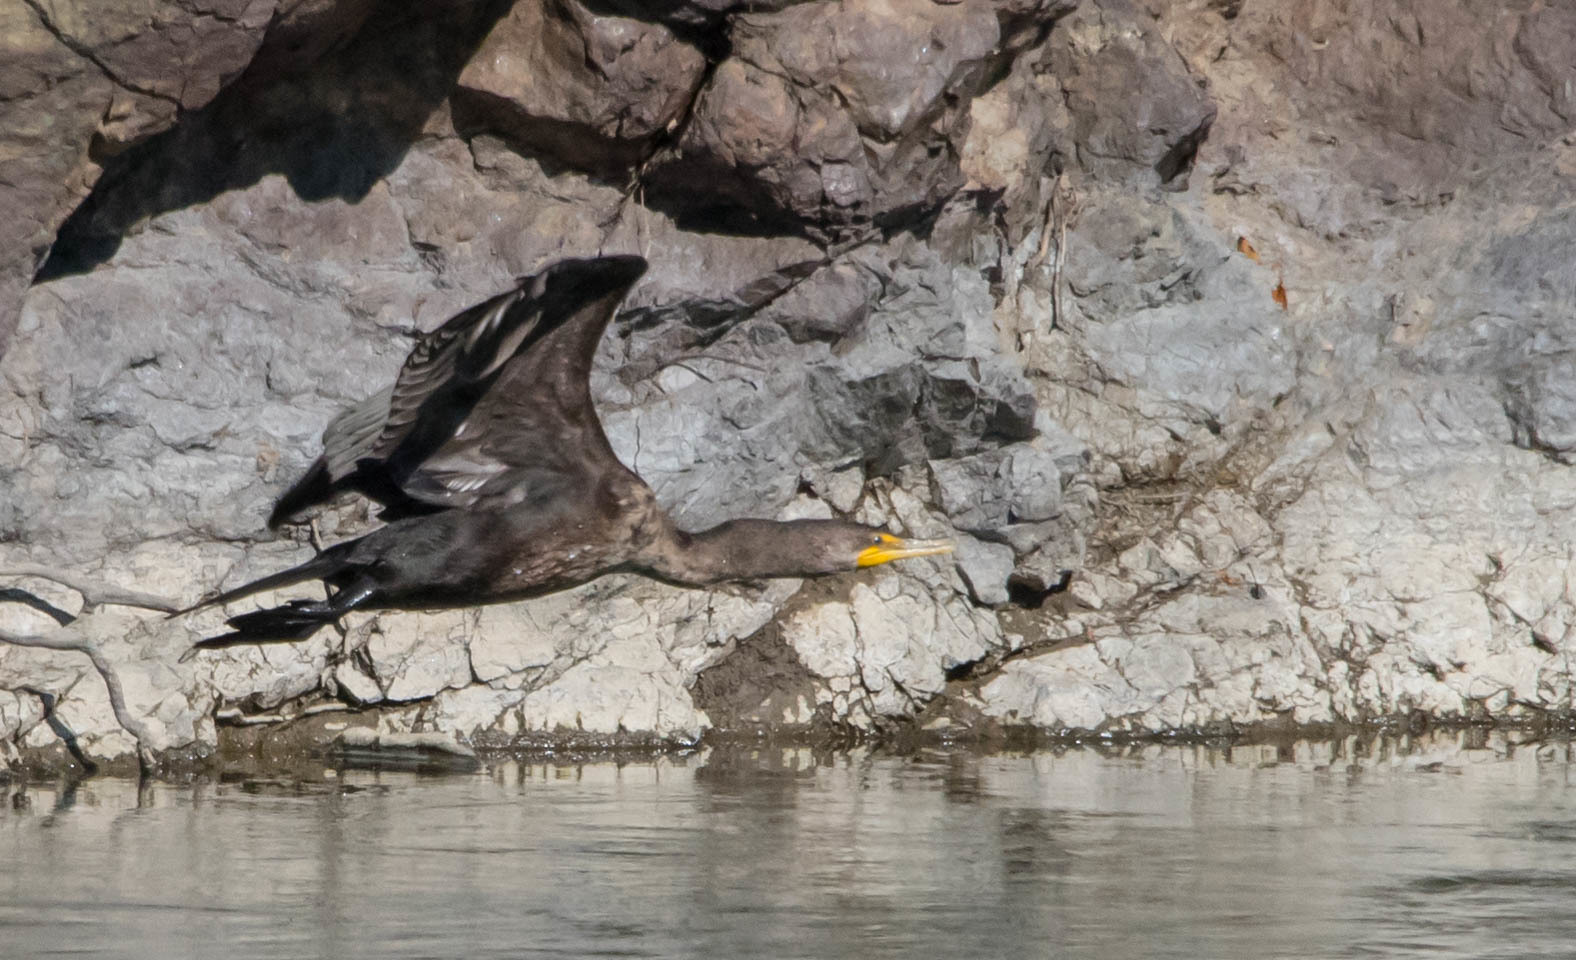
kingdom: Animalia
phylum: Chordata
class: Aves
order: Suliformes
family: Phalacrocoracidae
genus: Phalacrocorax
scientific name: Phalacrocorax auritus
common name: Double-crested cormorant
